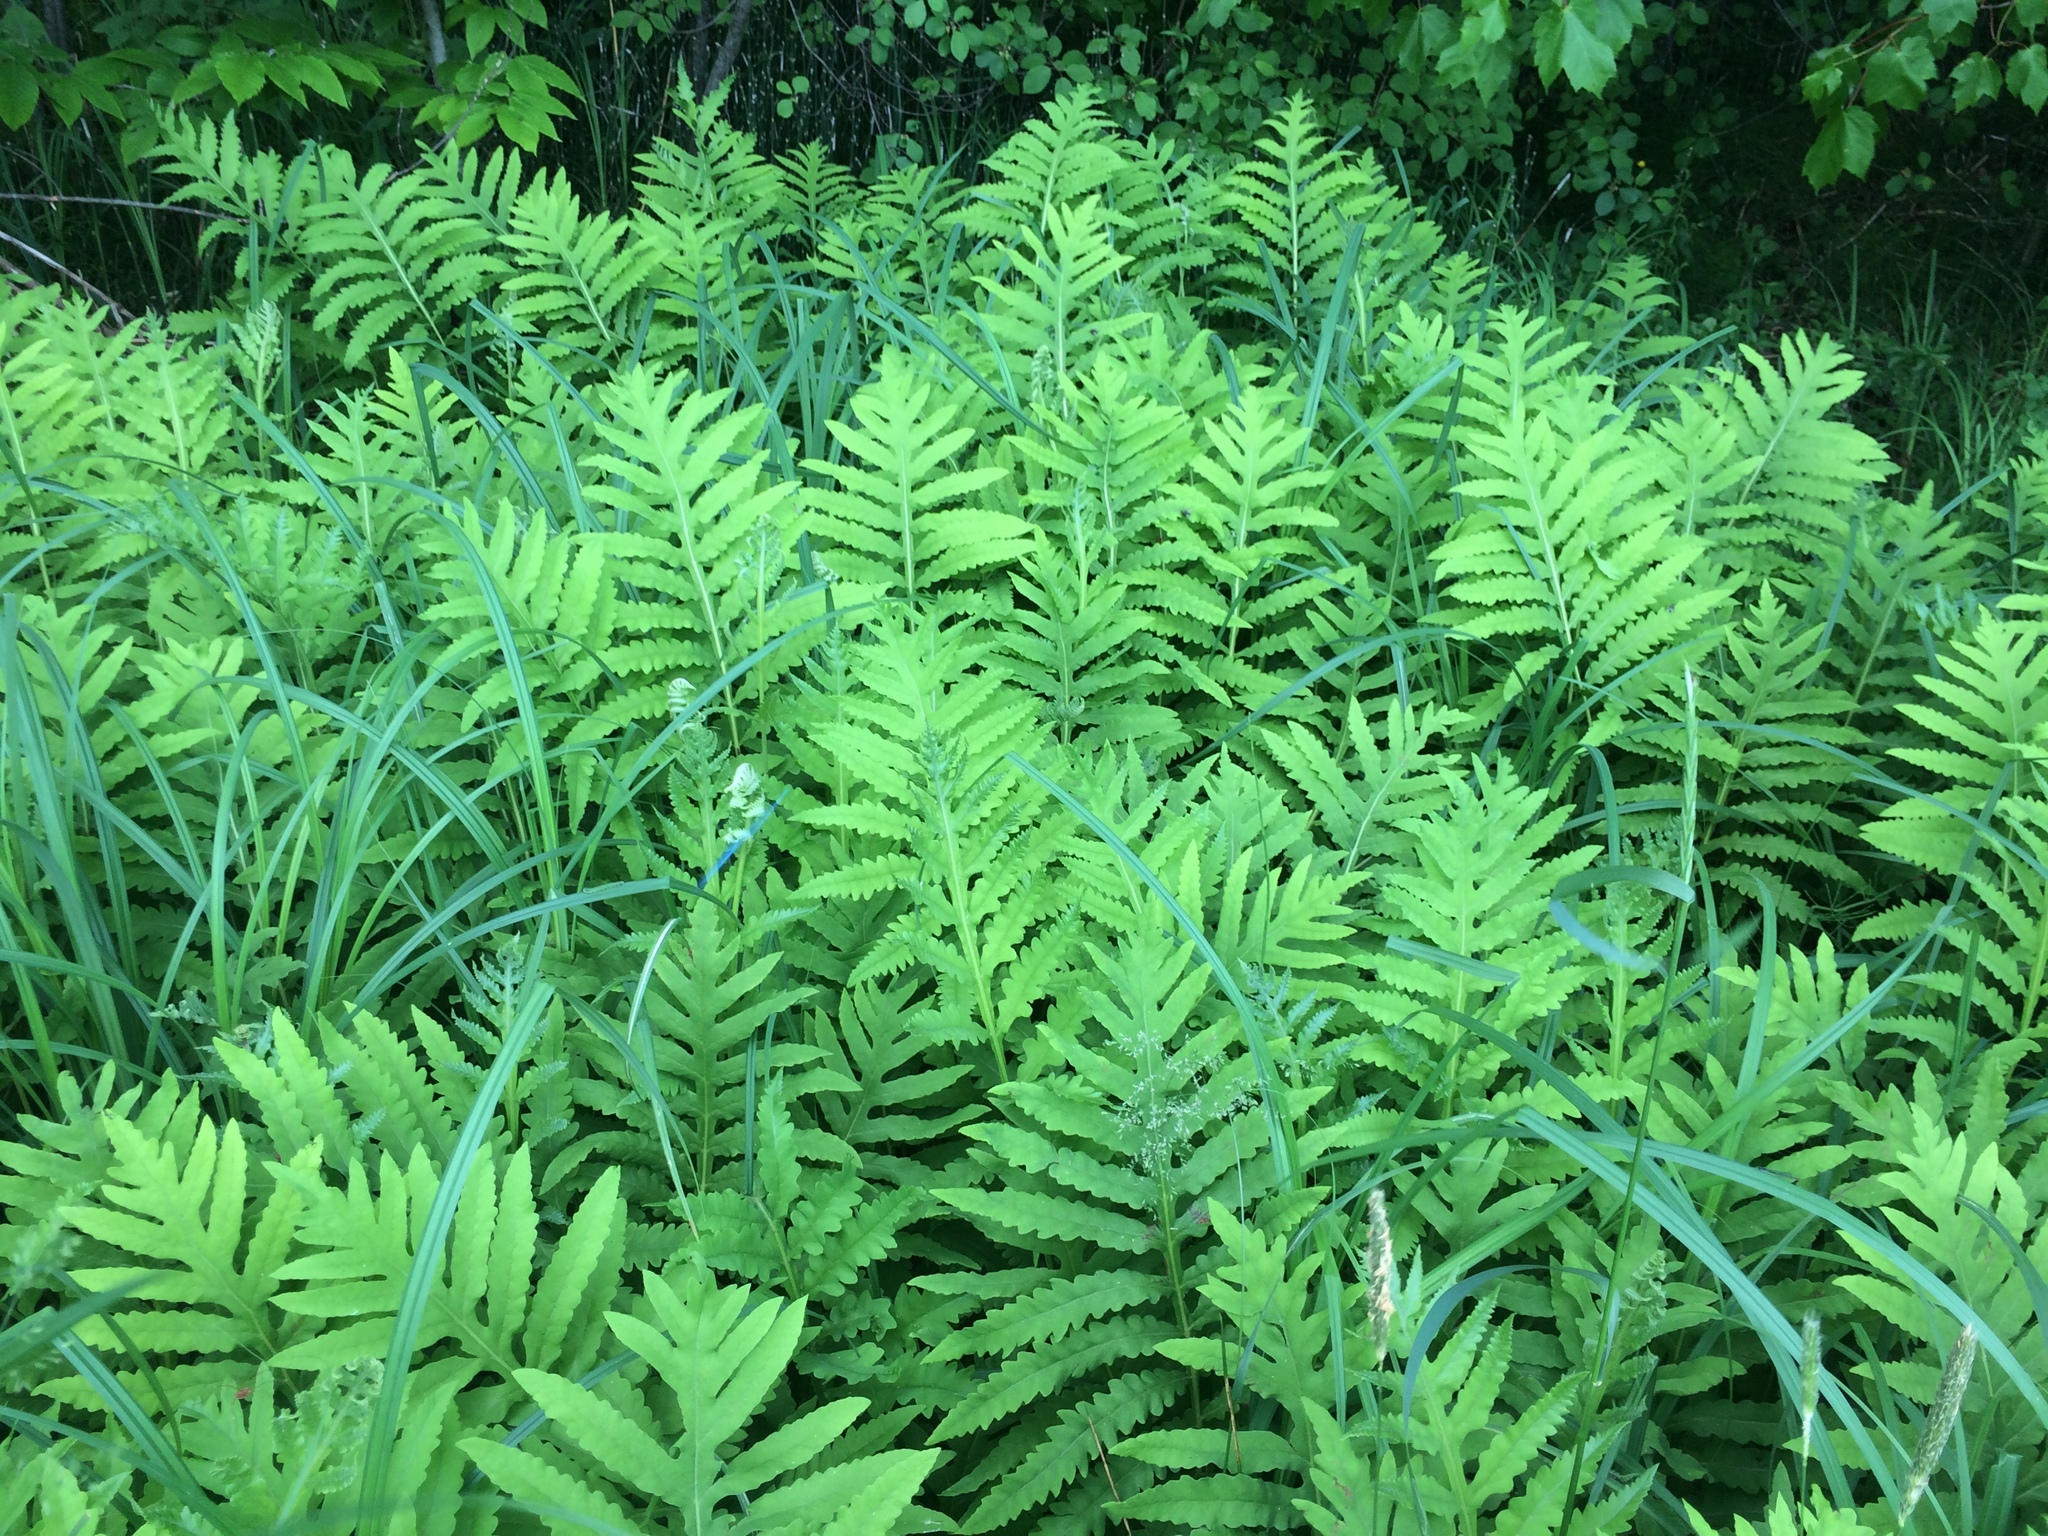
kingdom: Plantae
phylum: Tracheophyta
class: Polypodiopsida
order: Polypodiales
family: Onocleaceae
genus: Onoclea
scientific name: Onoclea sensibilis
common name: Sensitive fern
